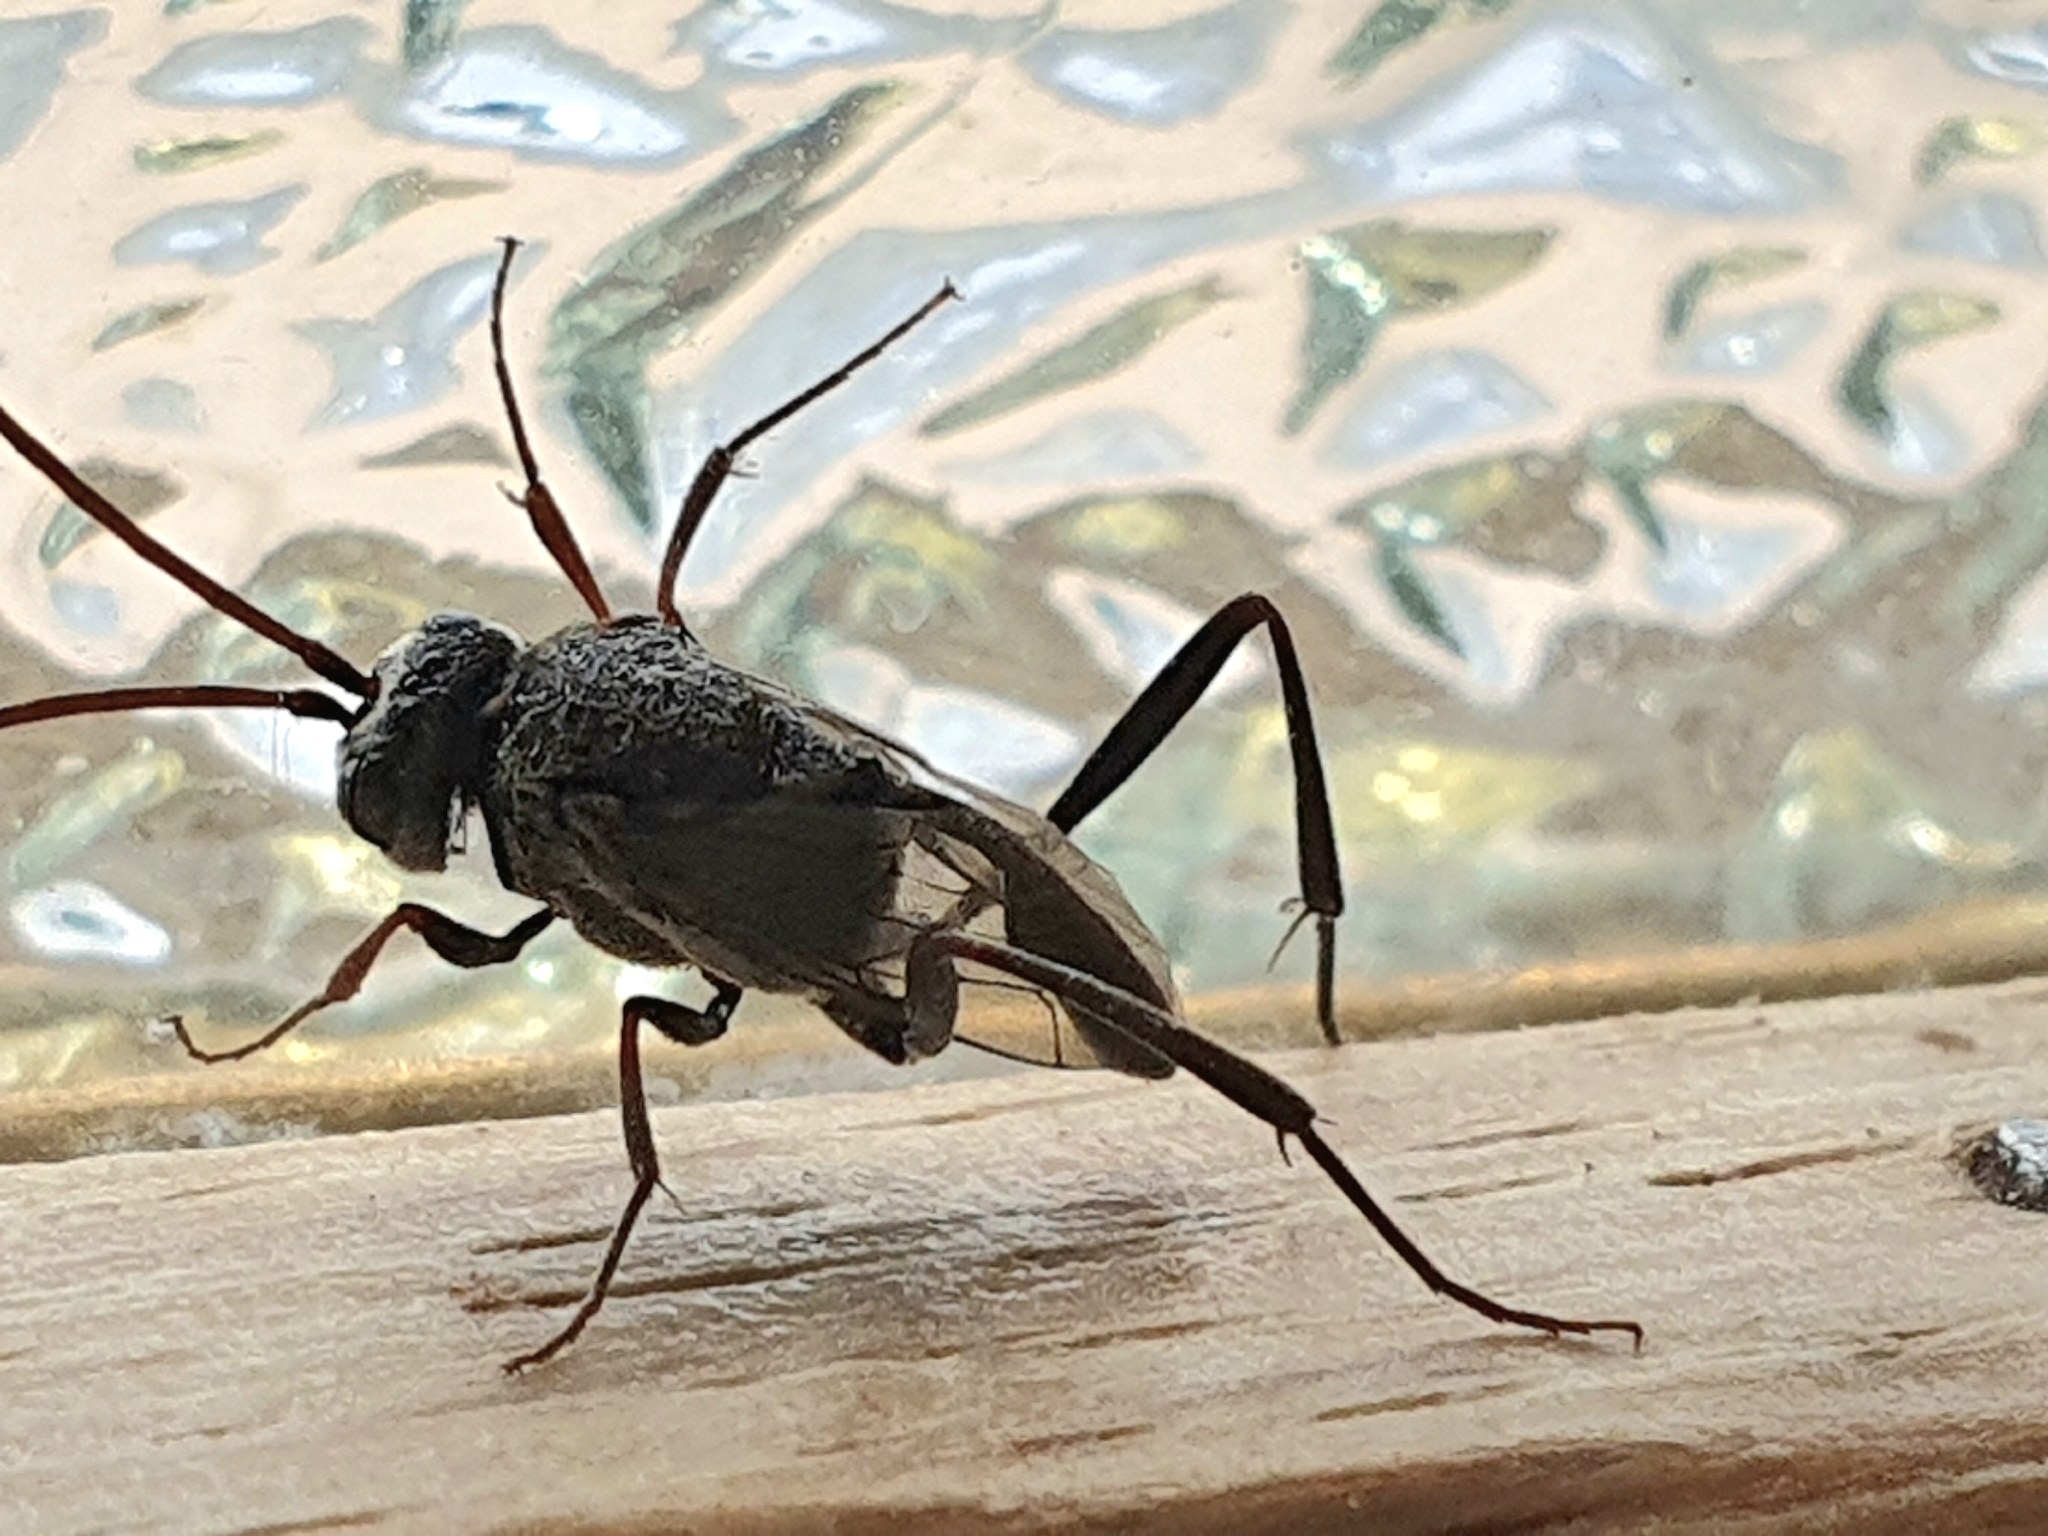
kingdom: Animalia
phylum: Arthropoda
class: Insecta
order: Hymenoptera
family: Evaniidae
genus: Prosevania
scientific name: Prosevania fuscipes
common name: Ensign wasp
